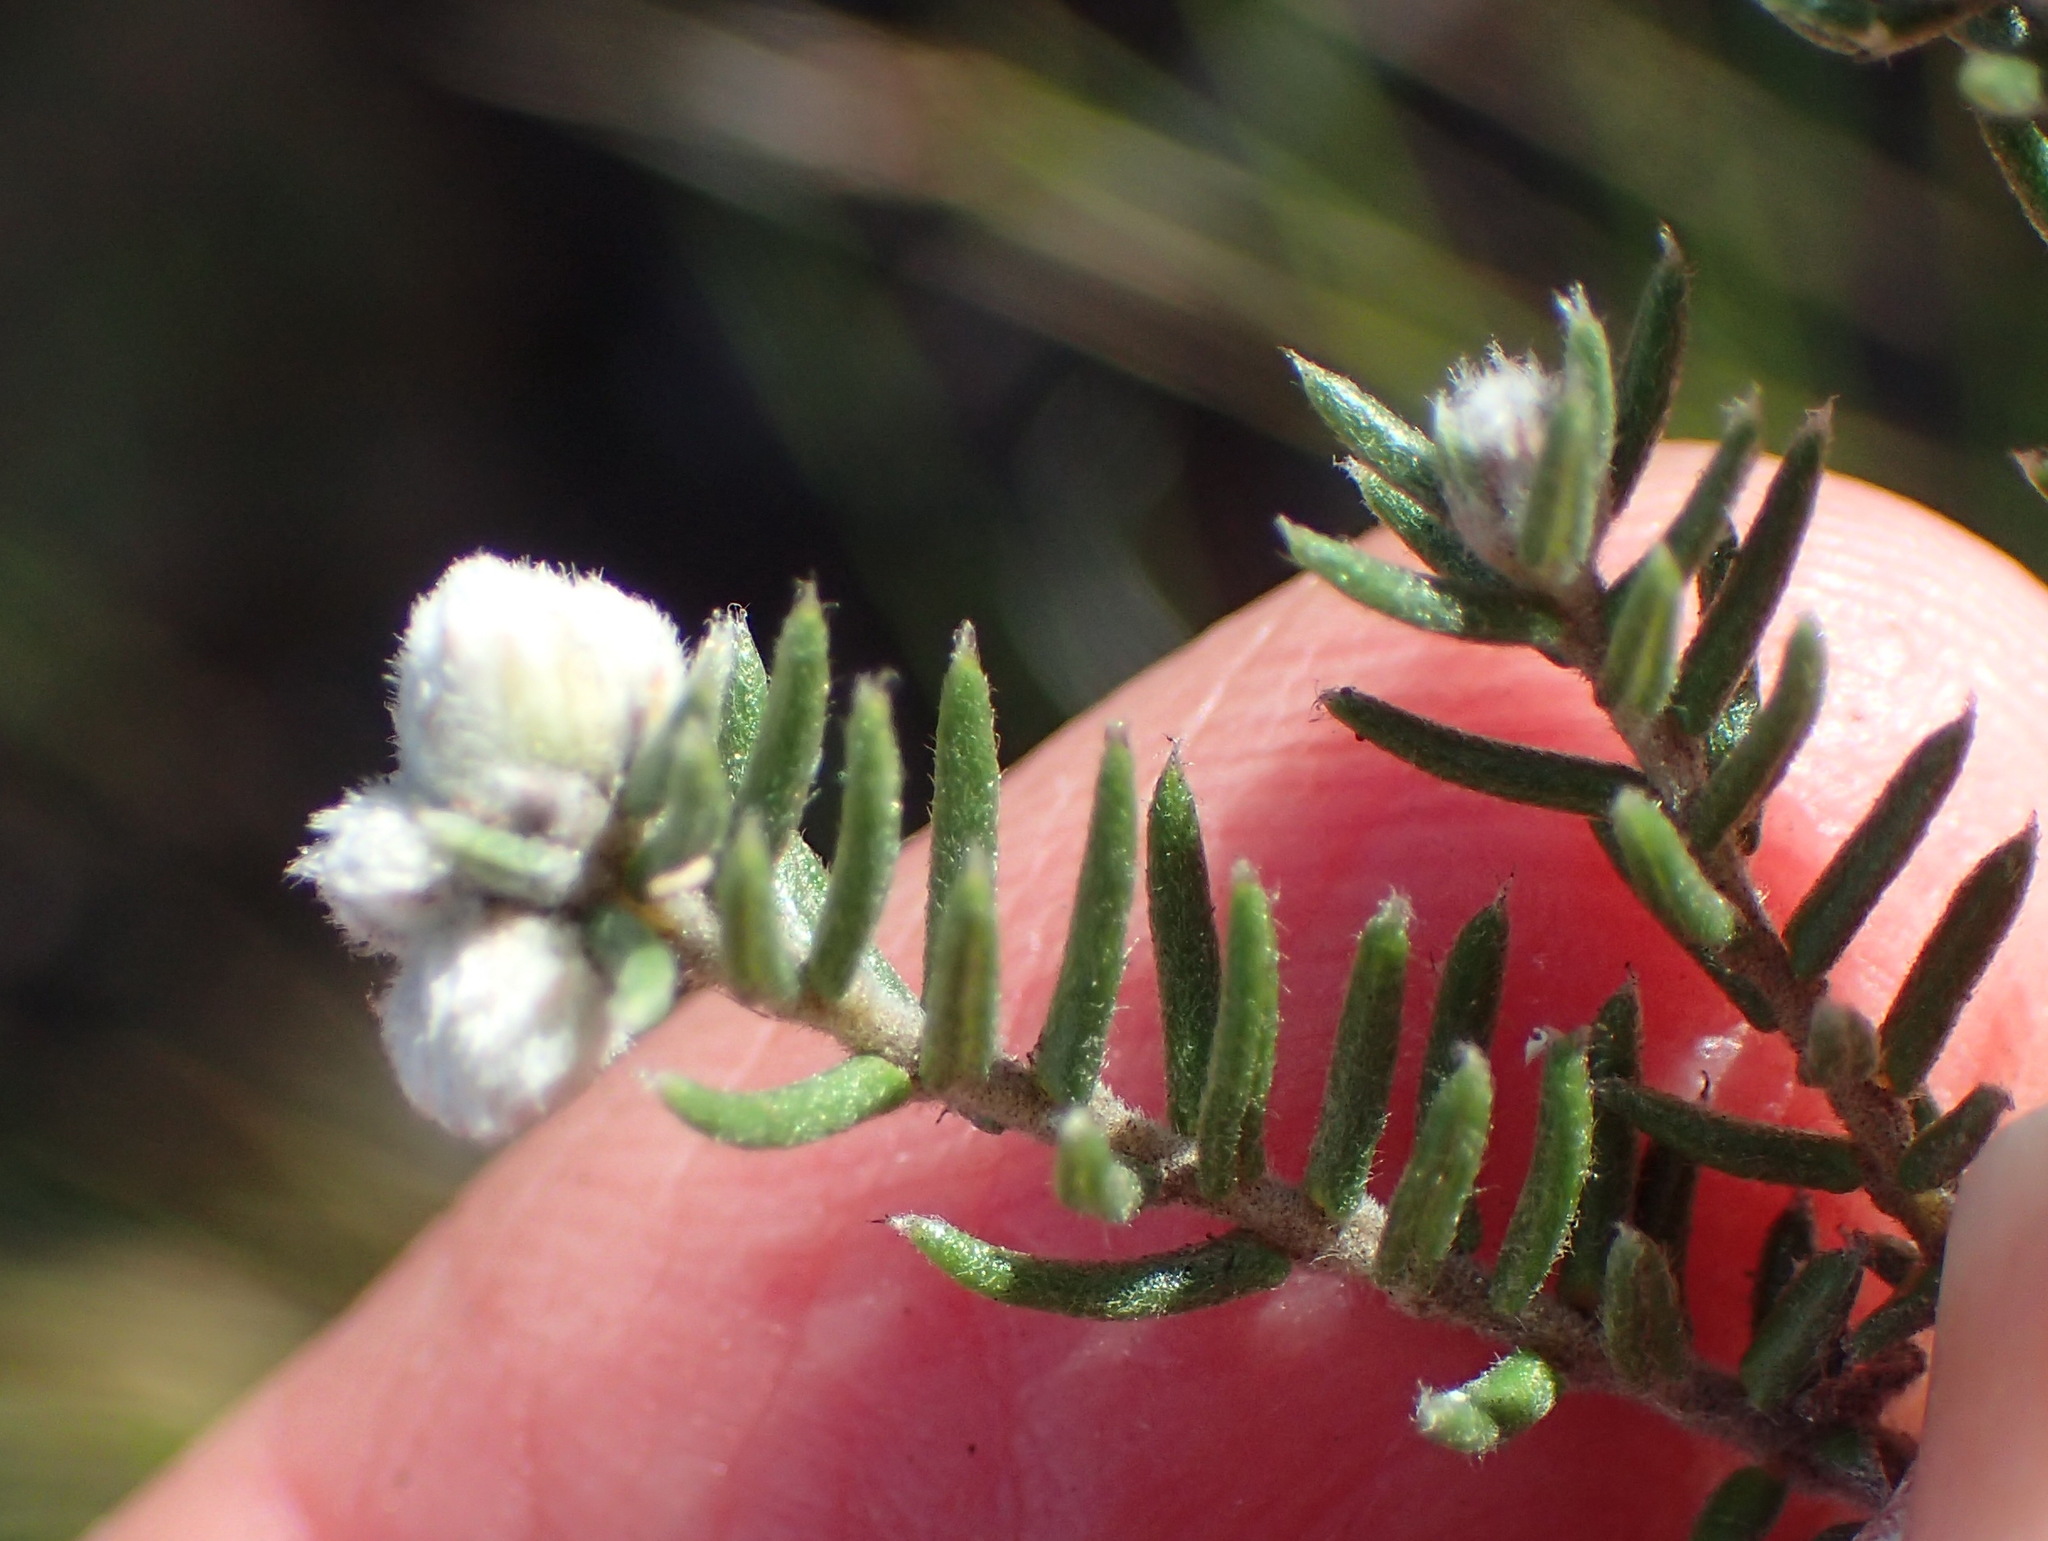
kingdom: Plantae
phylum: Tracheophyta
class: Magnoliopsida
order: Rosales
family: Rhamnaceae
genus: Phylica
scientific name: Phylica karroica
